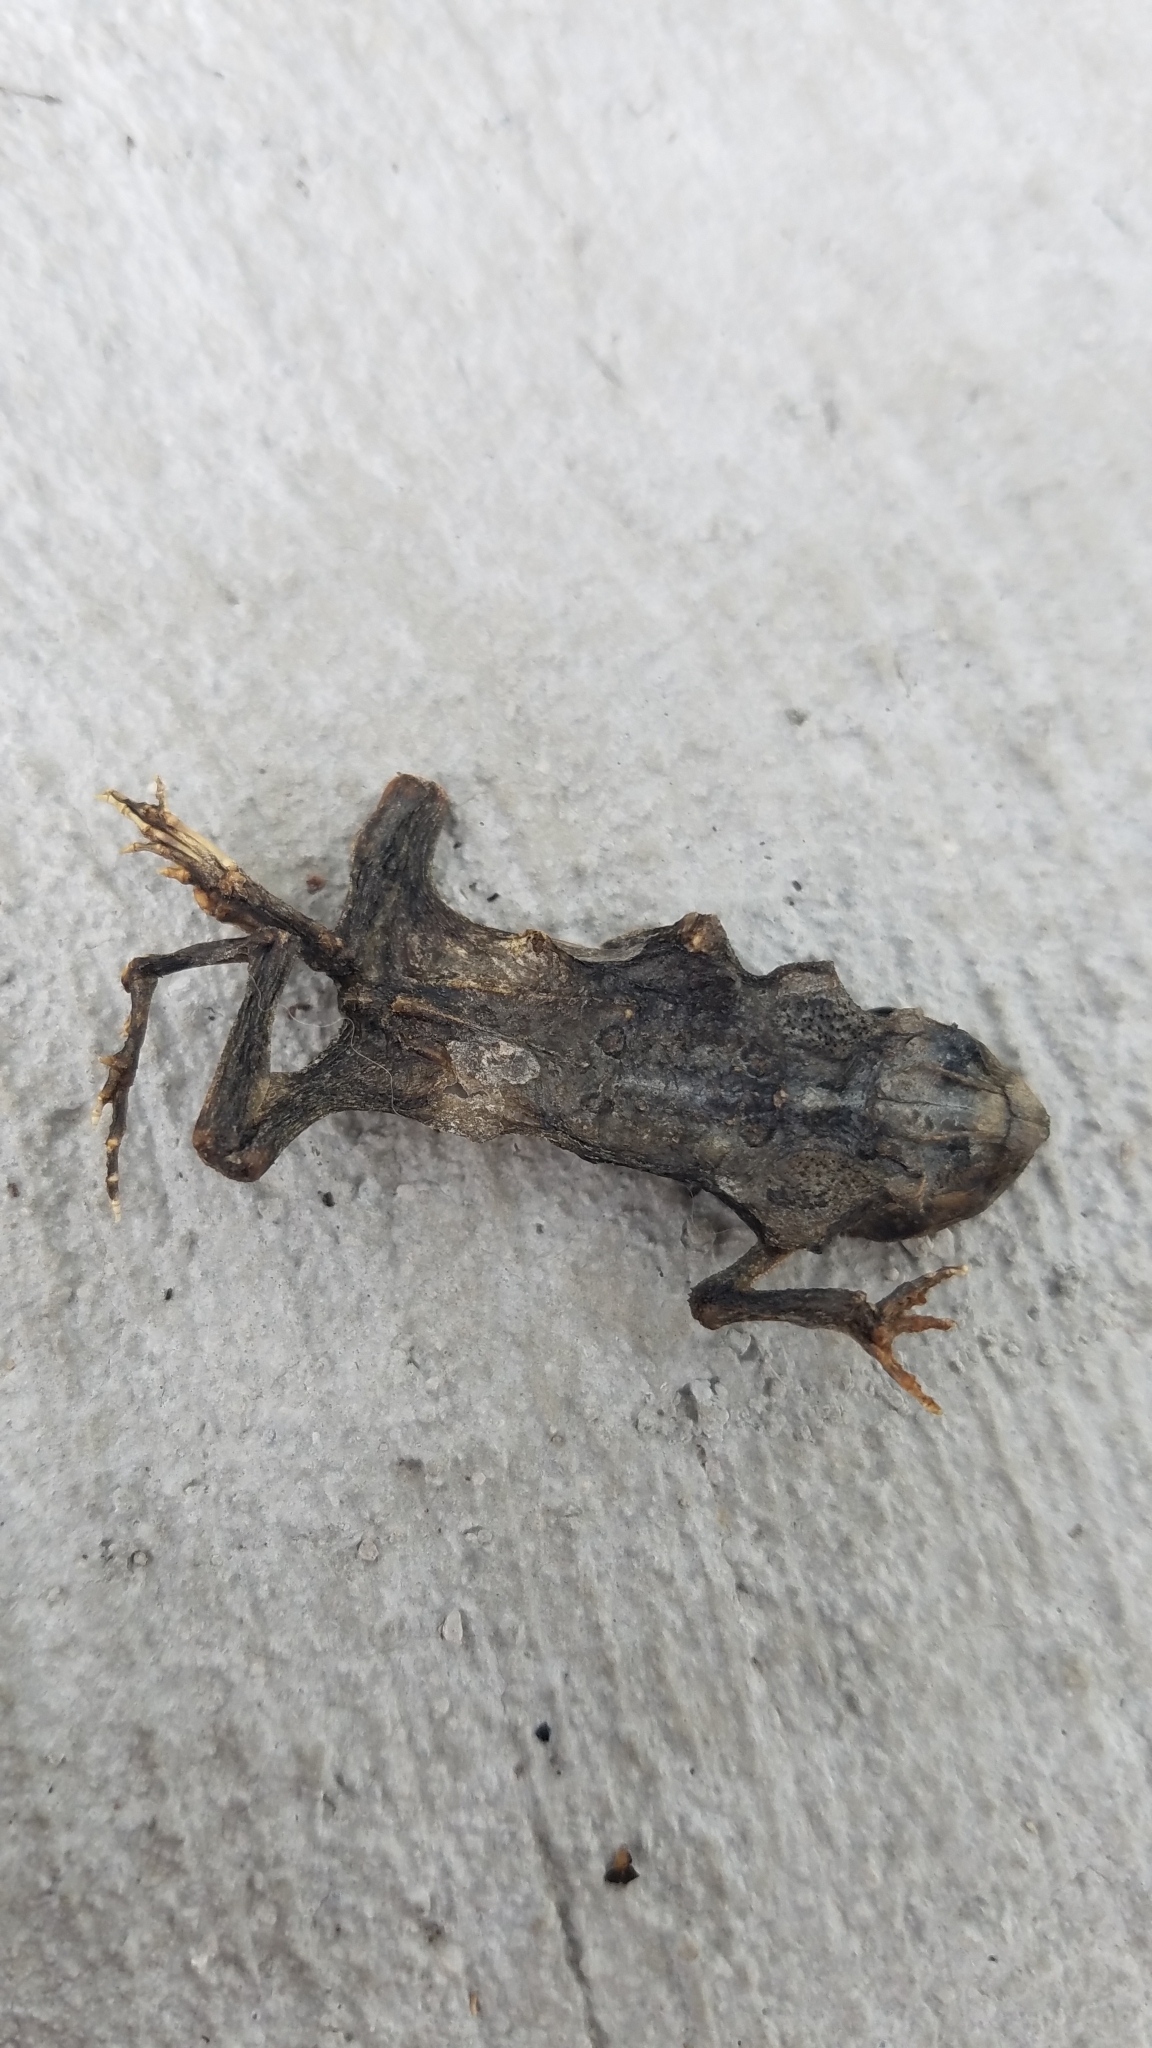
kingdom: Animalia
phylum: Chordata
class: Amphibia
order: Anura
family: Bufonidae
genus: Anaxyrus
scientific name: Anaxyrus americanus
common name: American toad
